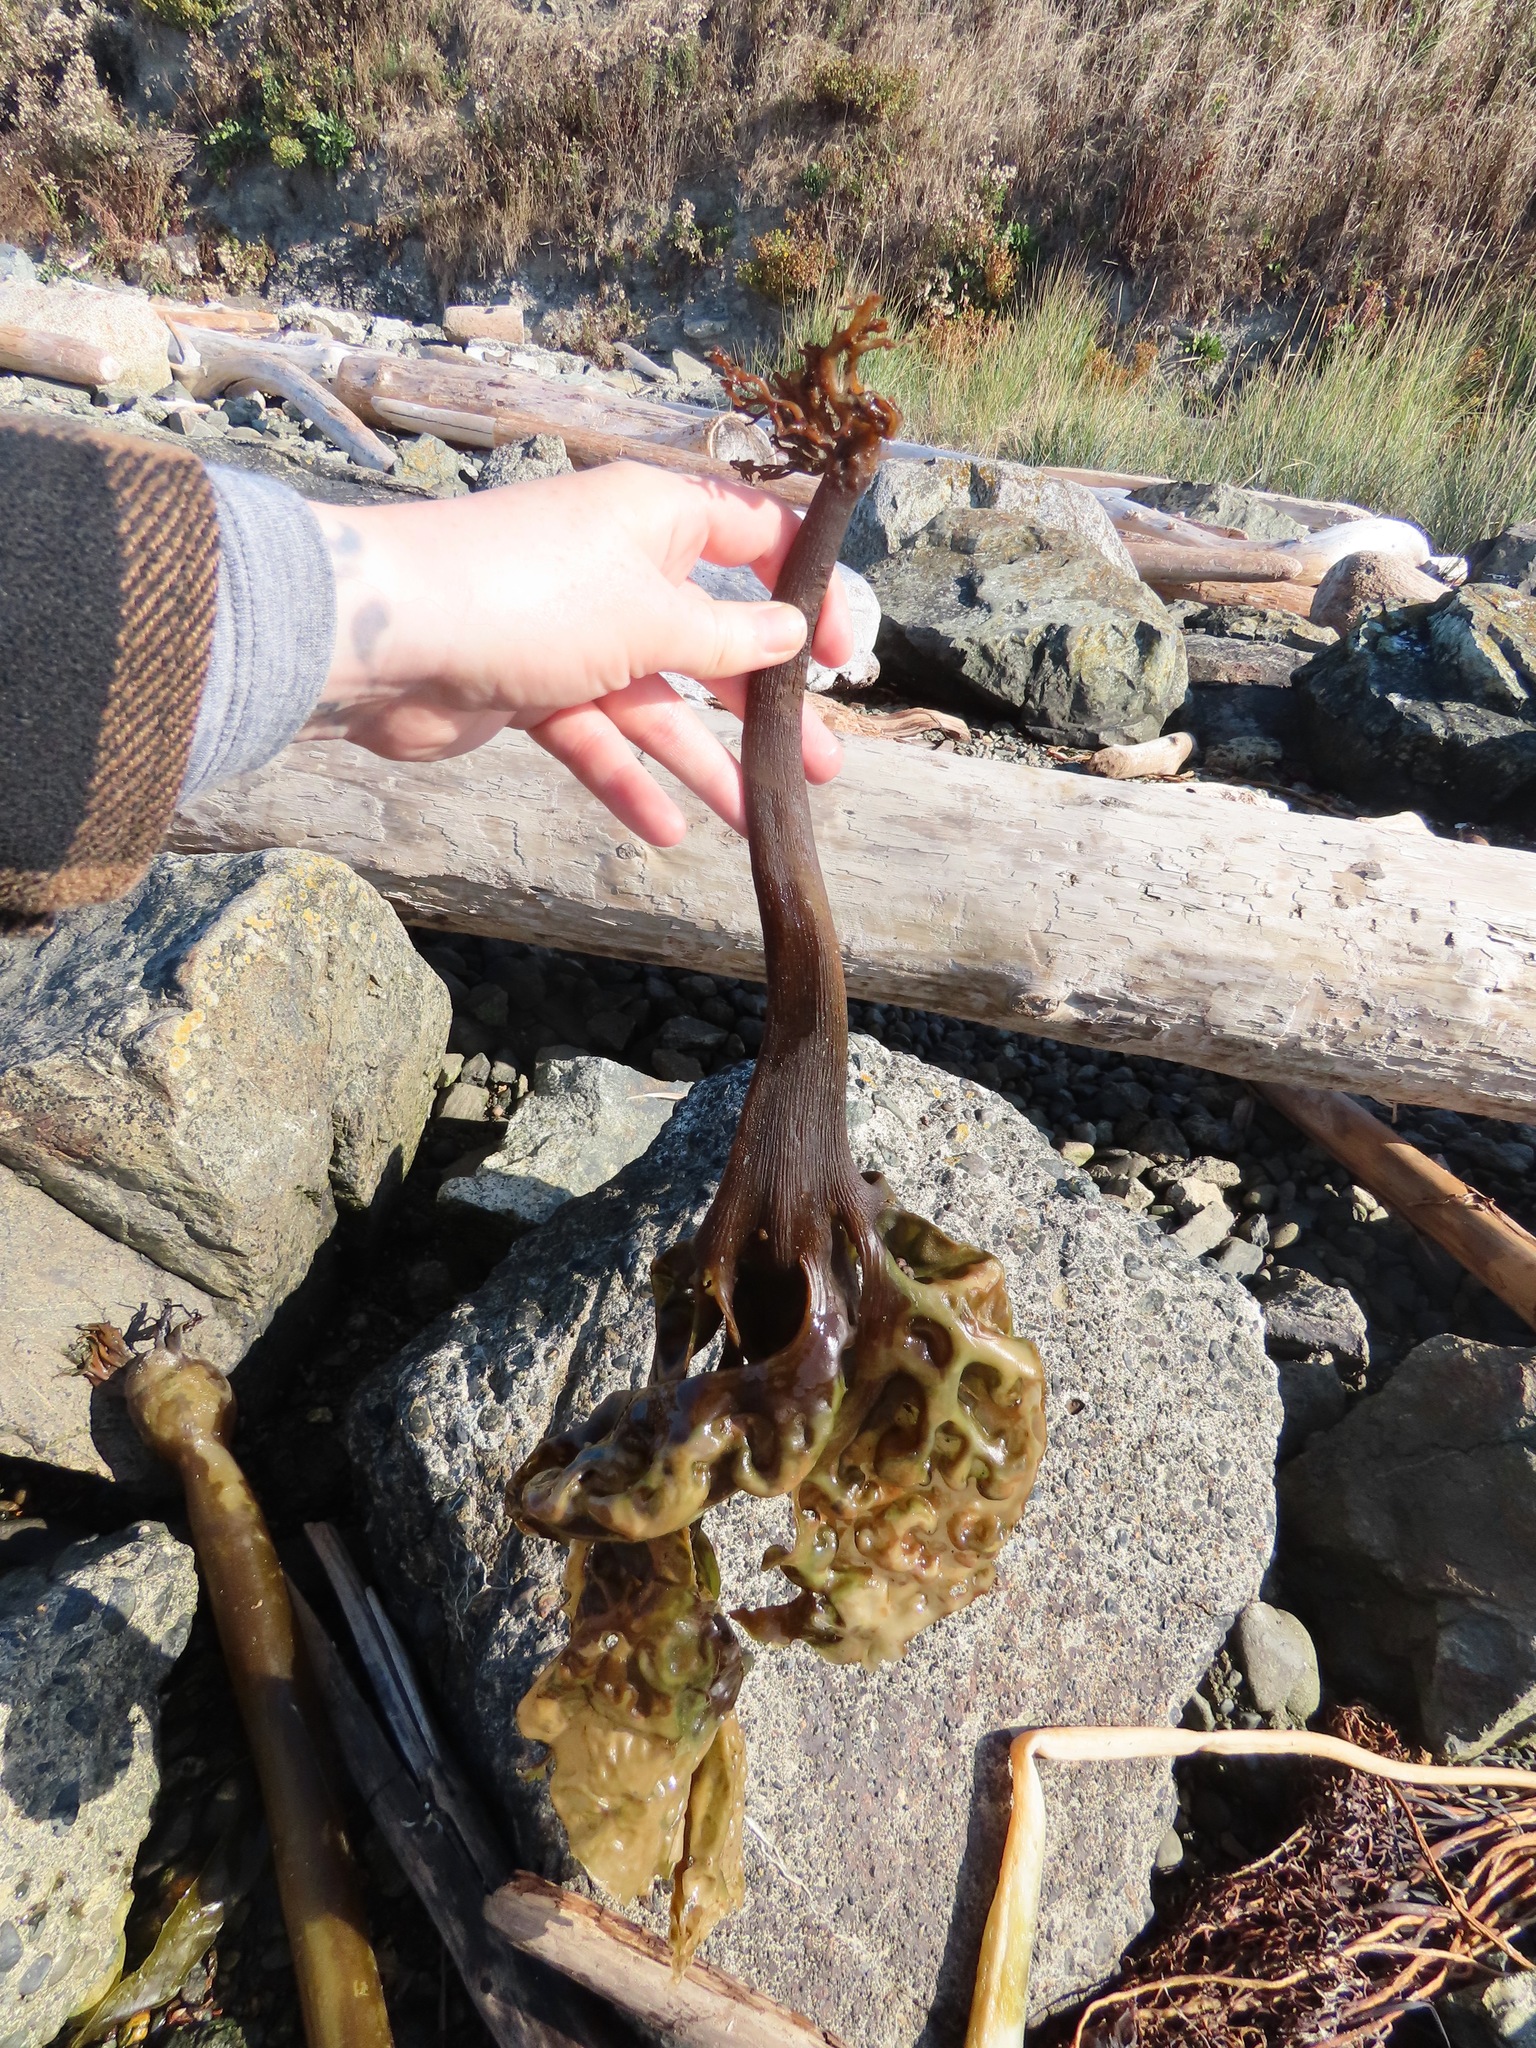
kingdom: Chromista
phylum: Ochrophyta
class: Phaeophyceae
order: Laminariales
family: Costariaceae
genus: Costaria
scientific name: Costaria costata
